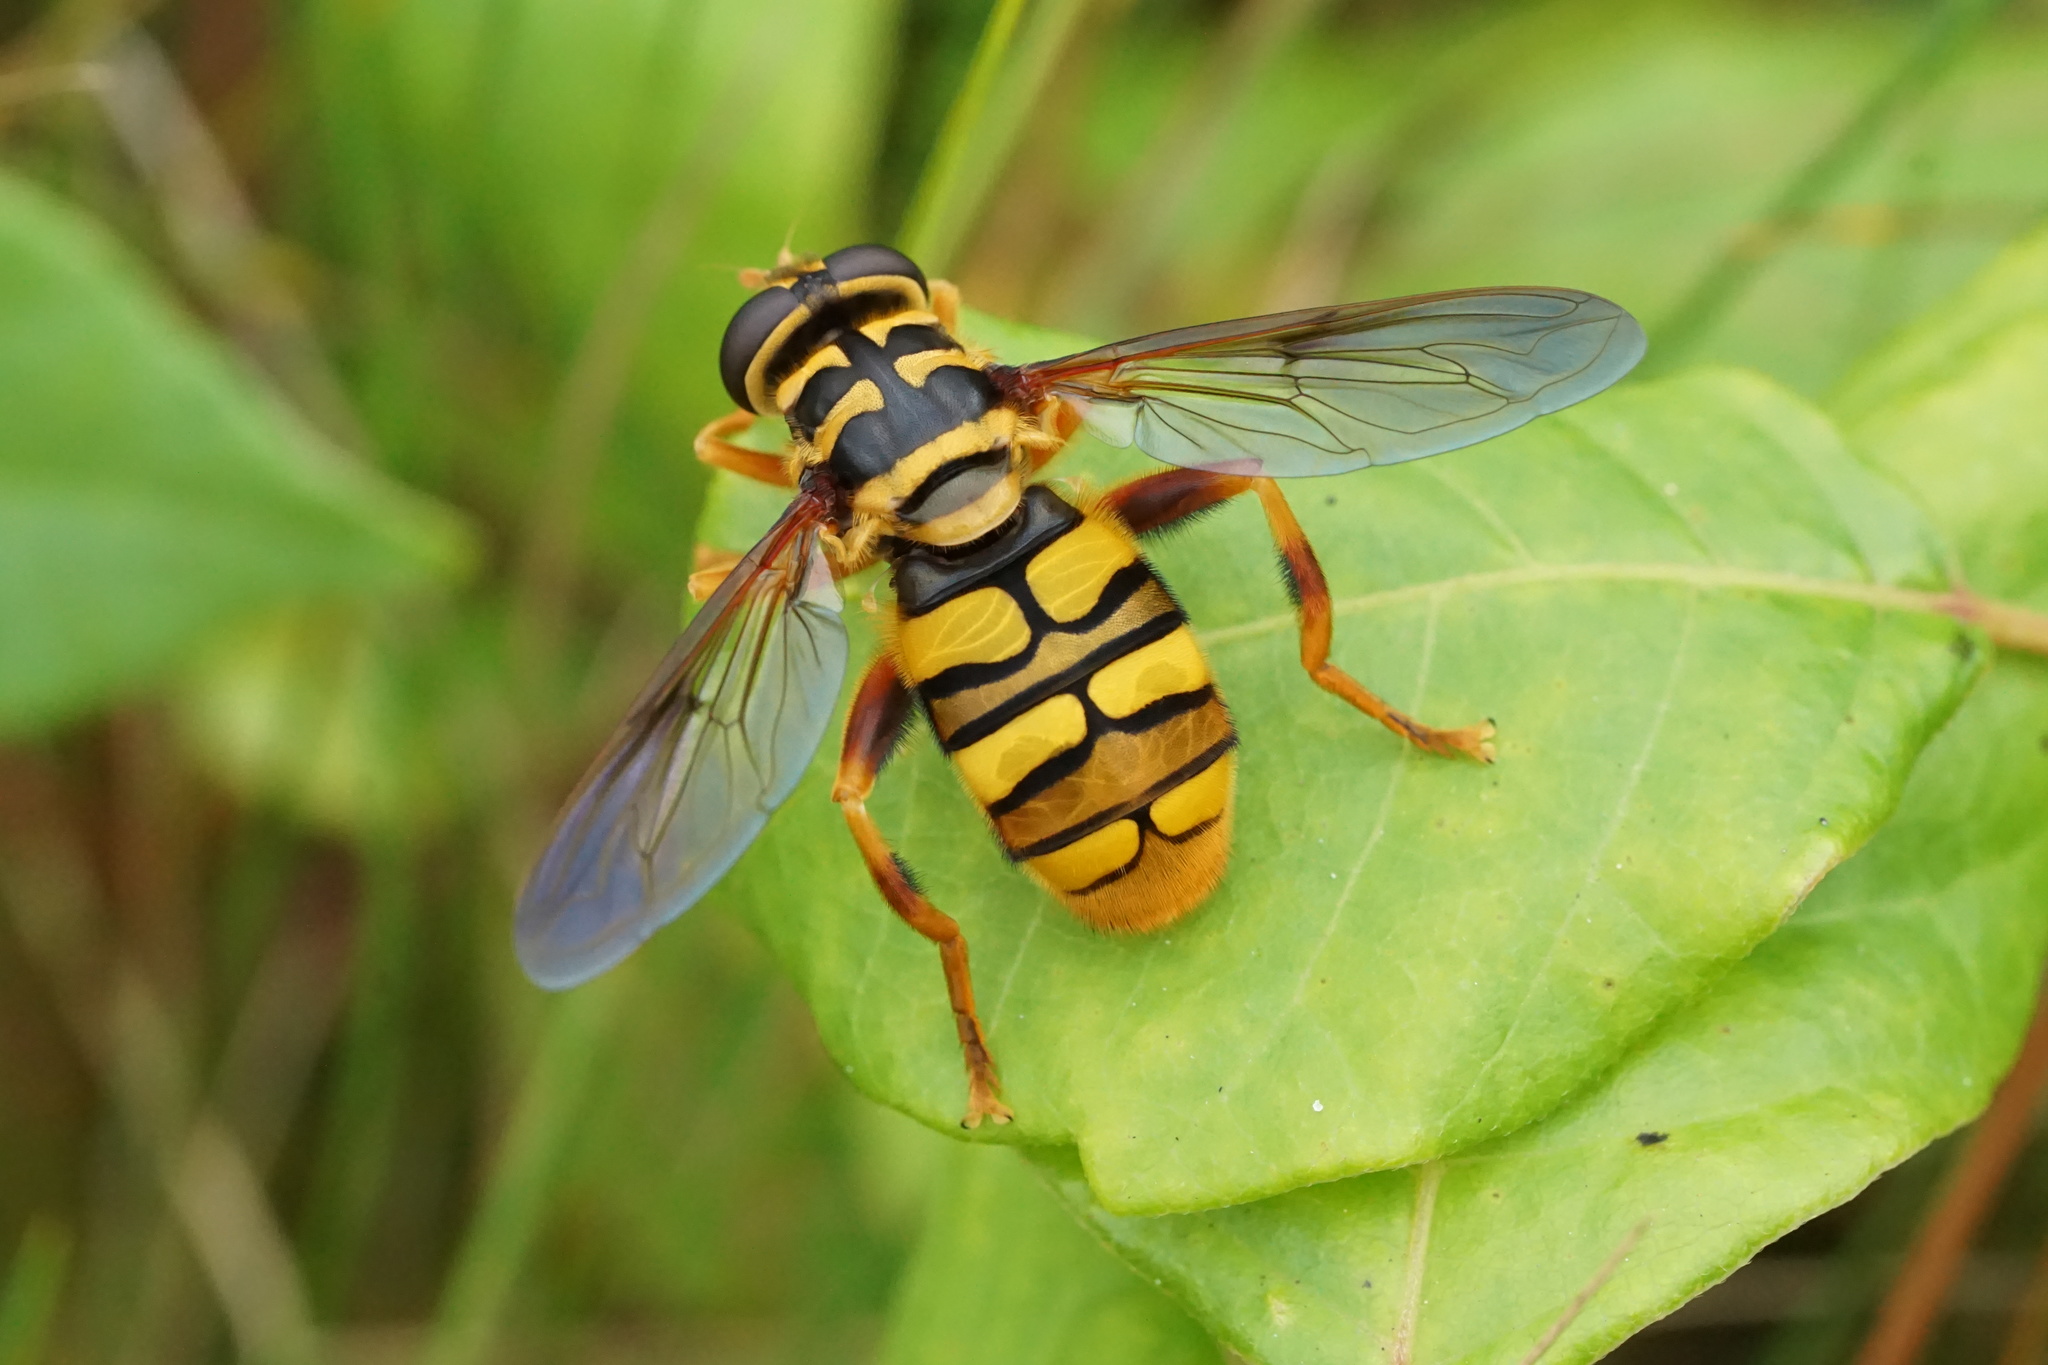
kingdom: Animalia
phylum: Arthropoda
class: Insecta
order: Diptera
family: Syrphidae
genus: Milesia
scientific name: Milesia virginiensis
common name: Virginia giant
